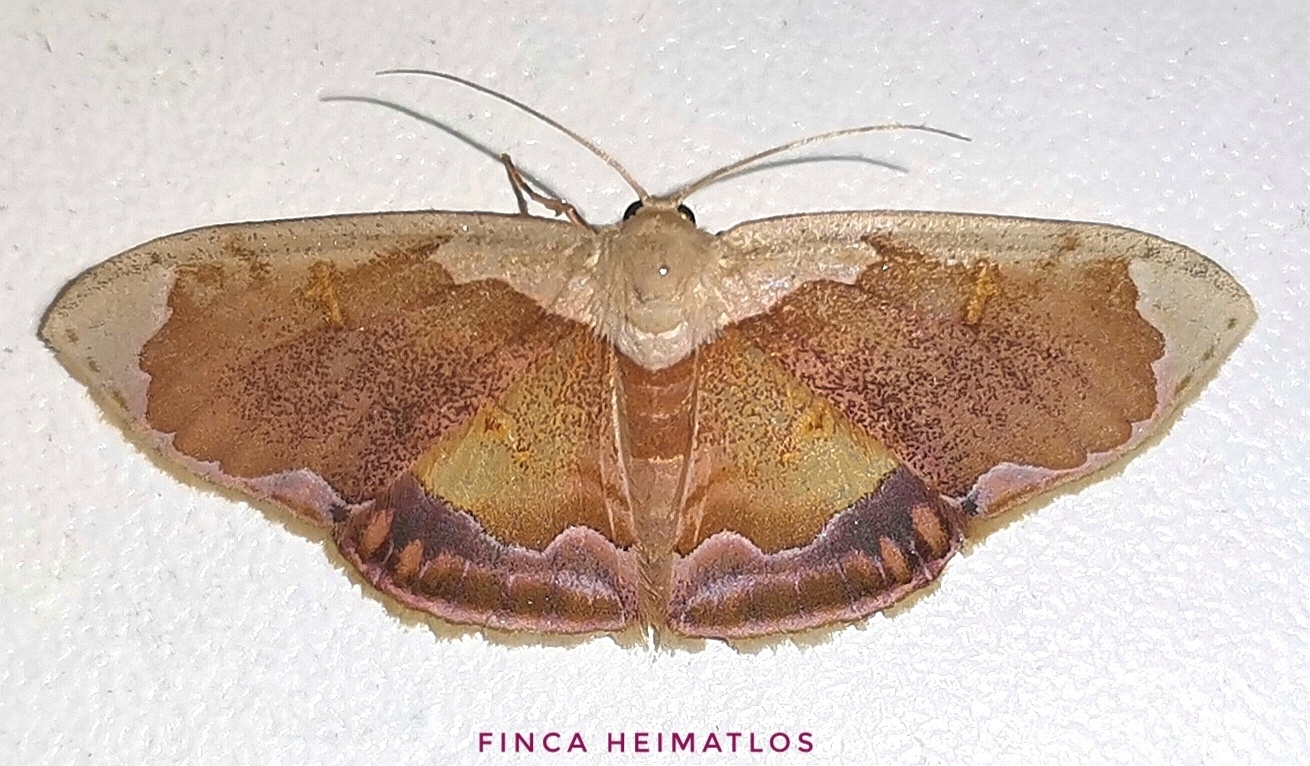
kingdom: Animalia
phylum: Arthropoda
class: Insecta
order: Lepidoptera
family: Geometridae
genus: Leptostales
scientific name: Leptostales admirabilis
